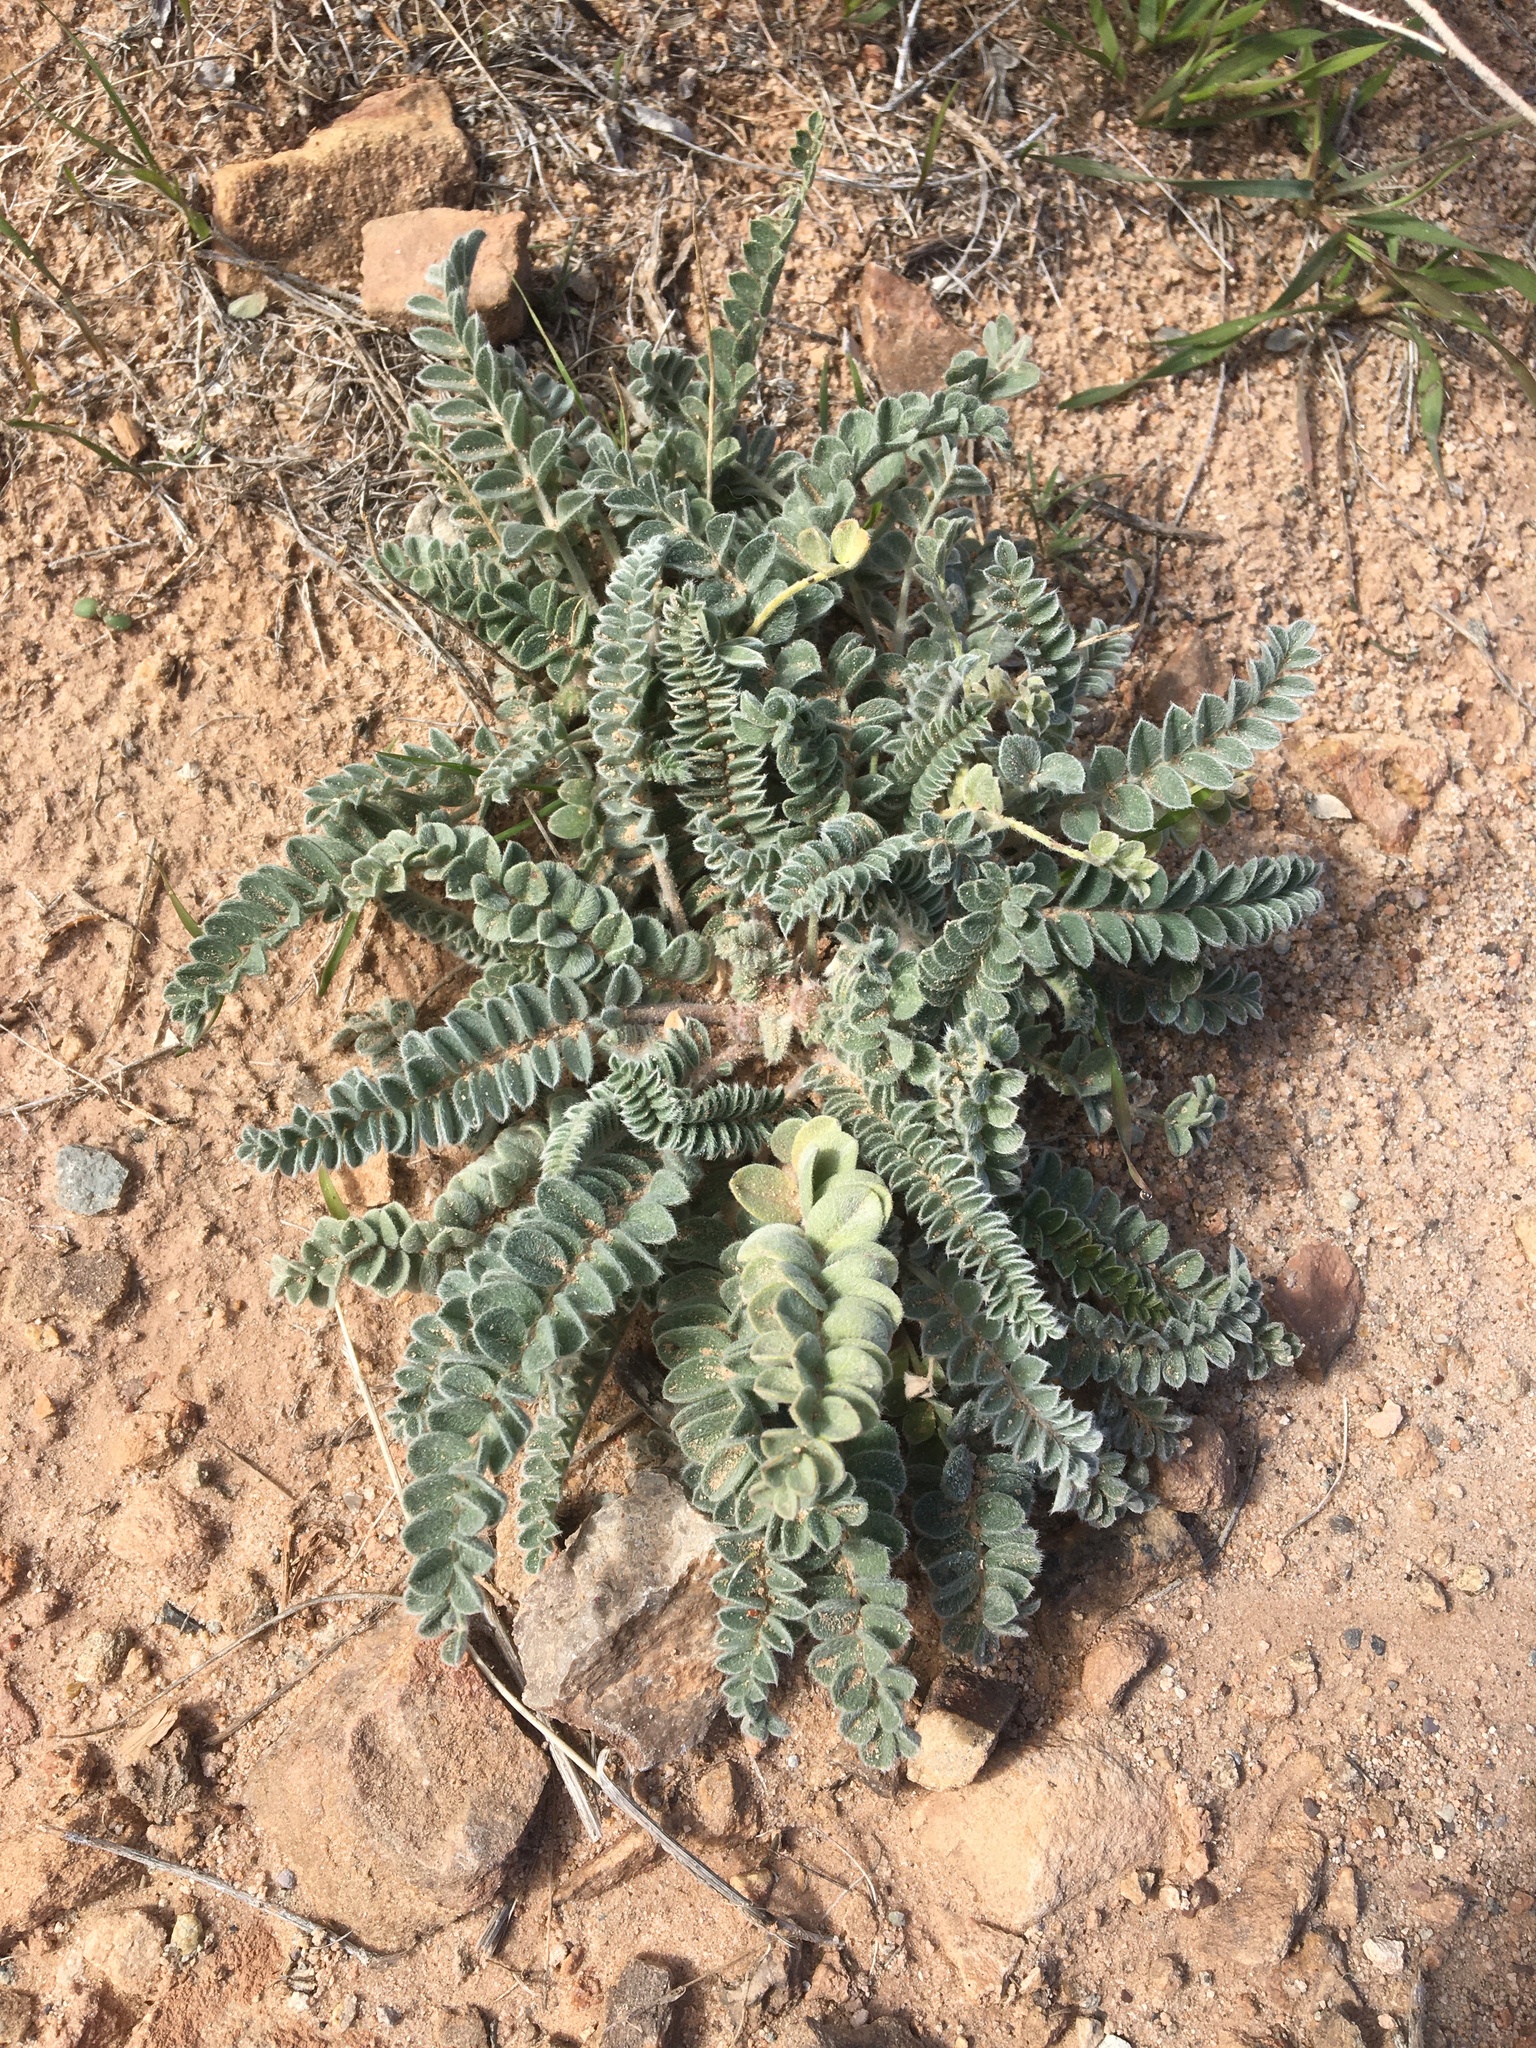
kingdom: Plantae
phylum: Tracheophyta
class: Magnoliopsida
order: Fabales
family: Fabaceae
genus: Astragalus
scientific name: Astragalus mollissimus
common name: Woolly locoweed
